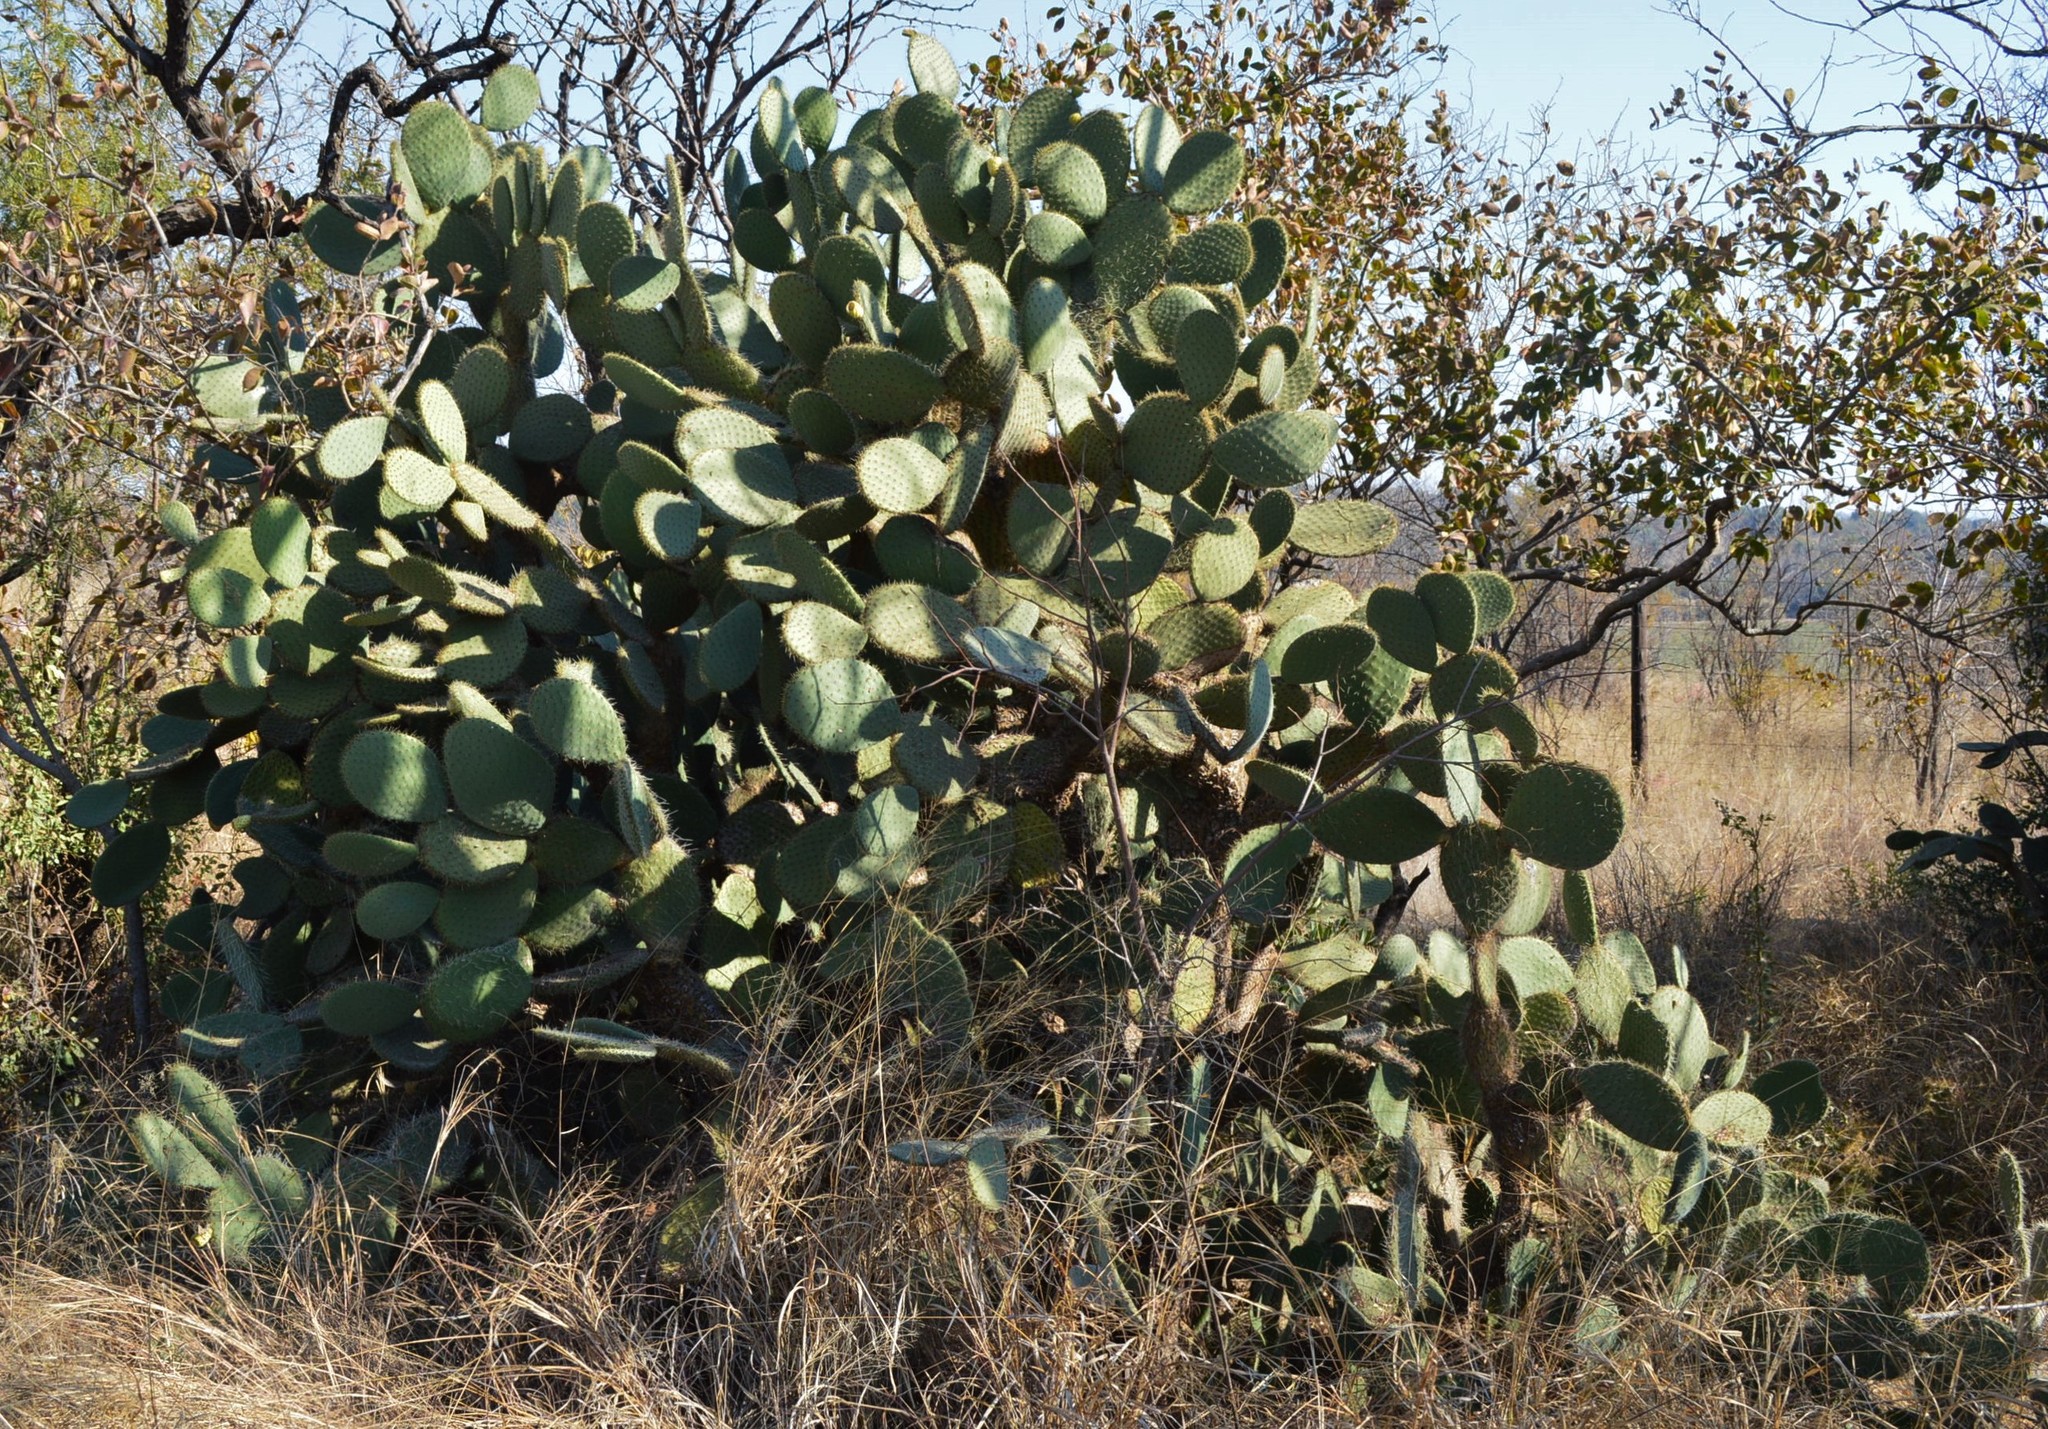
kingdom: Plantae
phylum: Tracheophyta
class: Magnoliopsida
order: Caryophyllales
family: Cactaceae
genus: Opuntia
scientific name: Opuntia leucotricha
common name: Arborescent pricklypear
